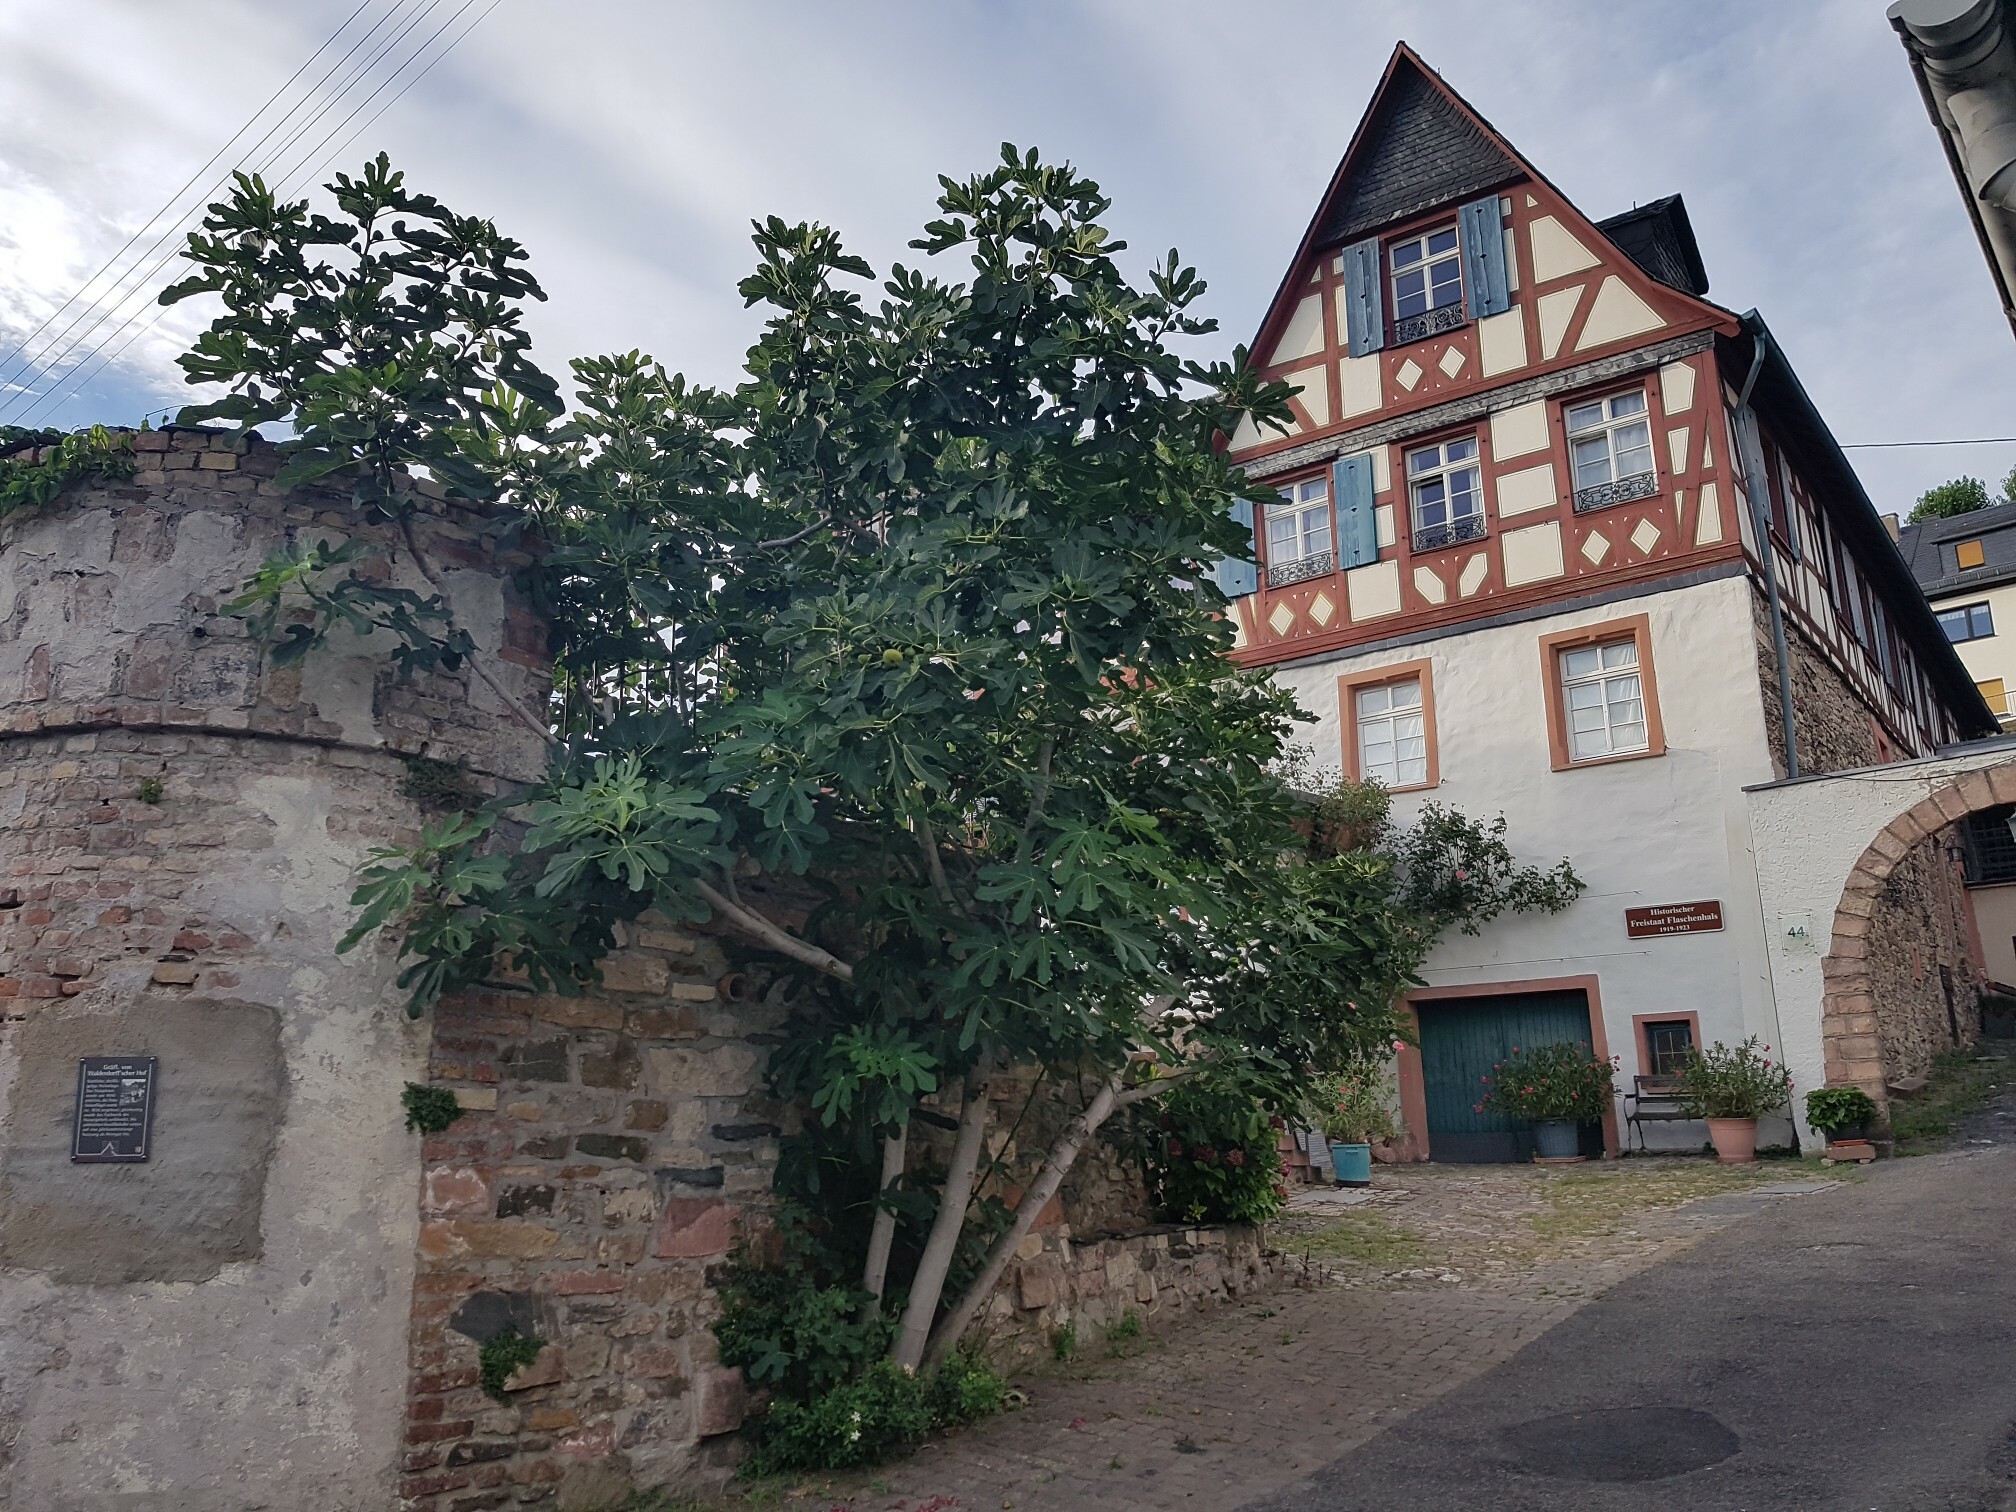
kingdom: Plantae
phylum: Tracheophyta
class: Magnoliopsida
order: Rosales
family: Moraceae
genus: Ficus
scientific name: Ficus carica
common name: Fig
